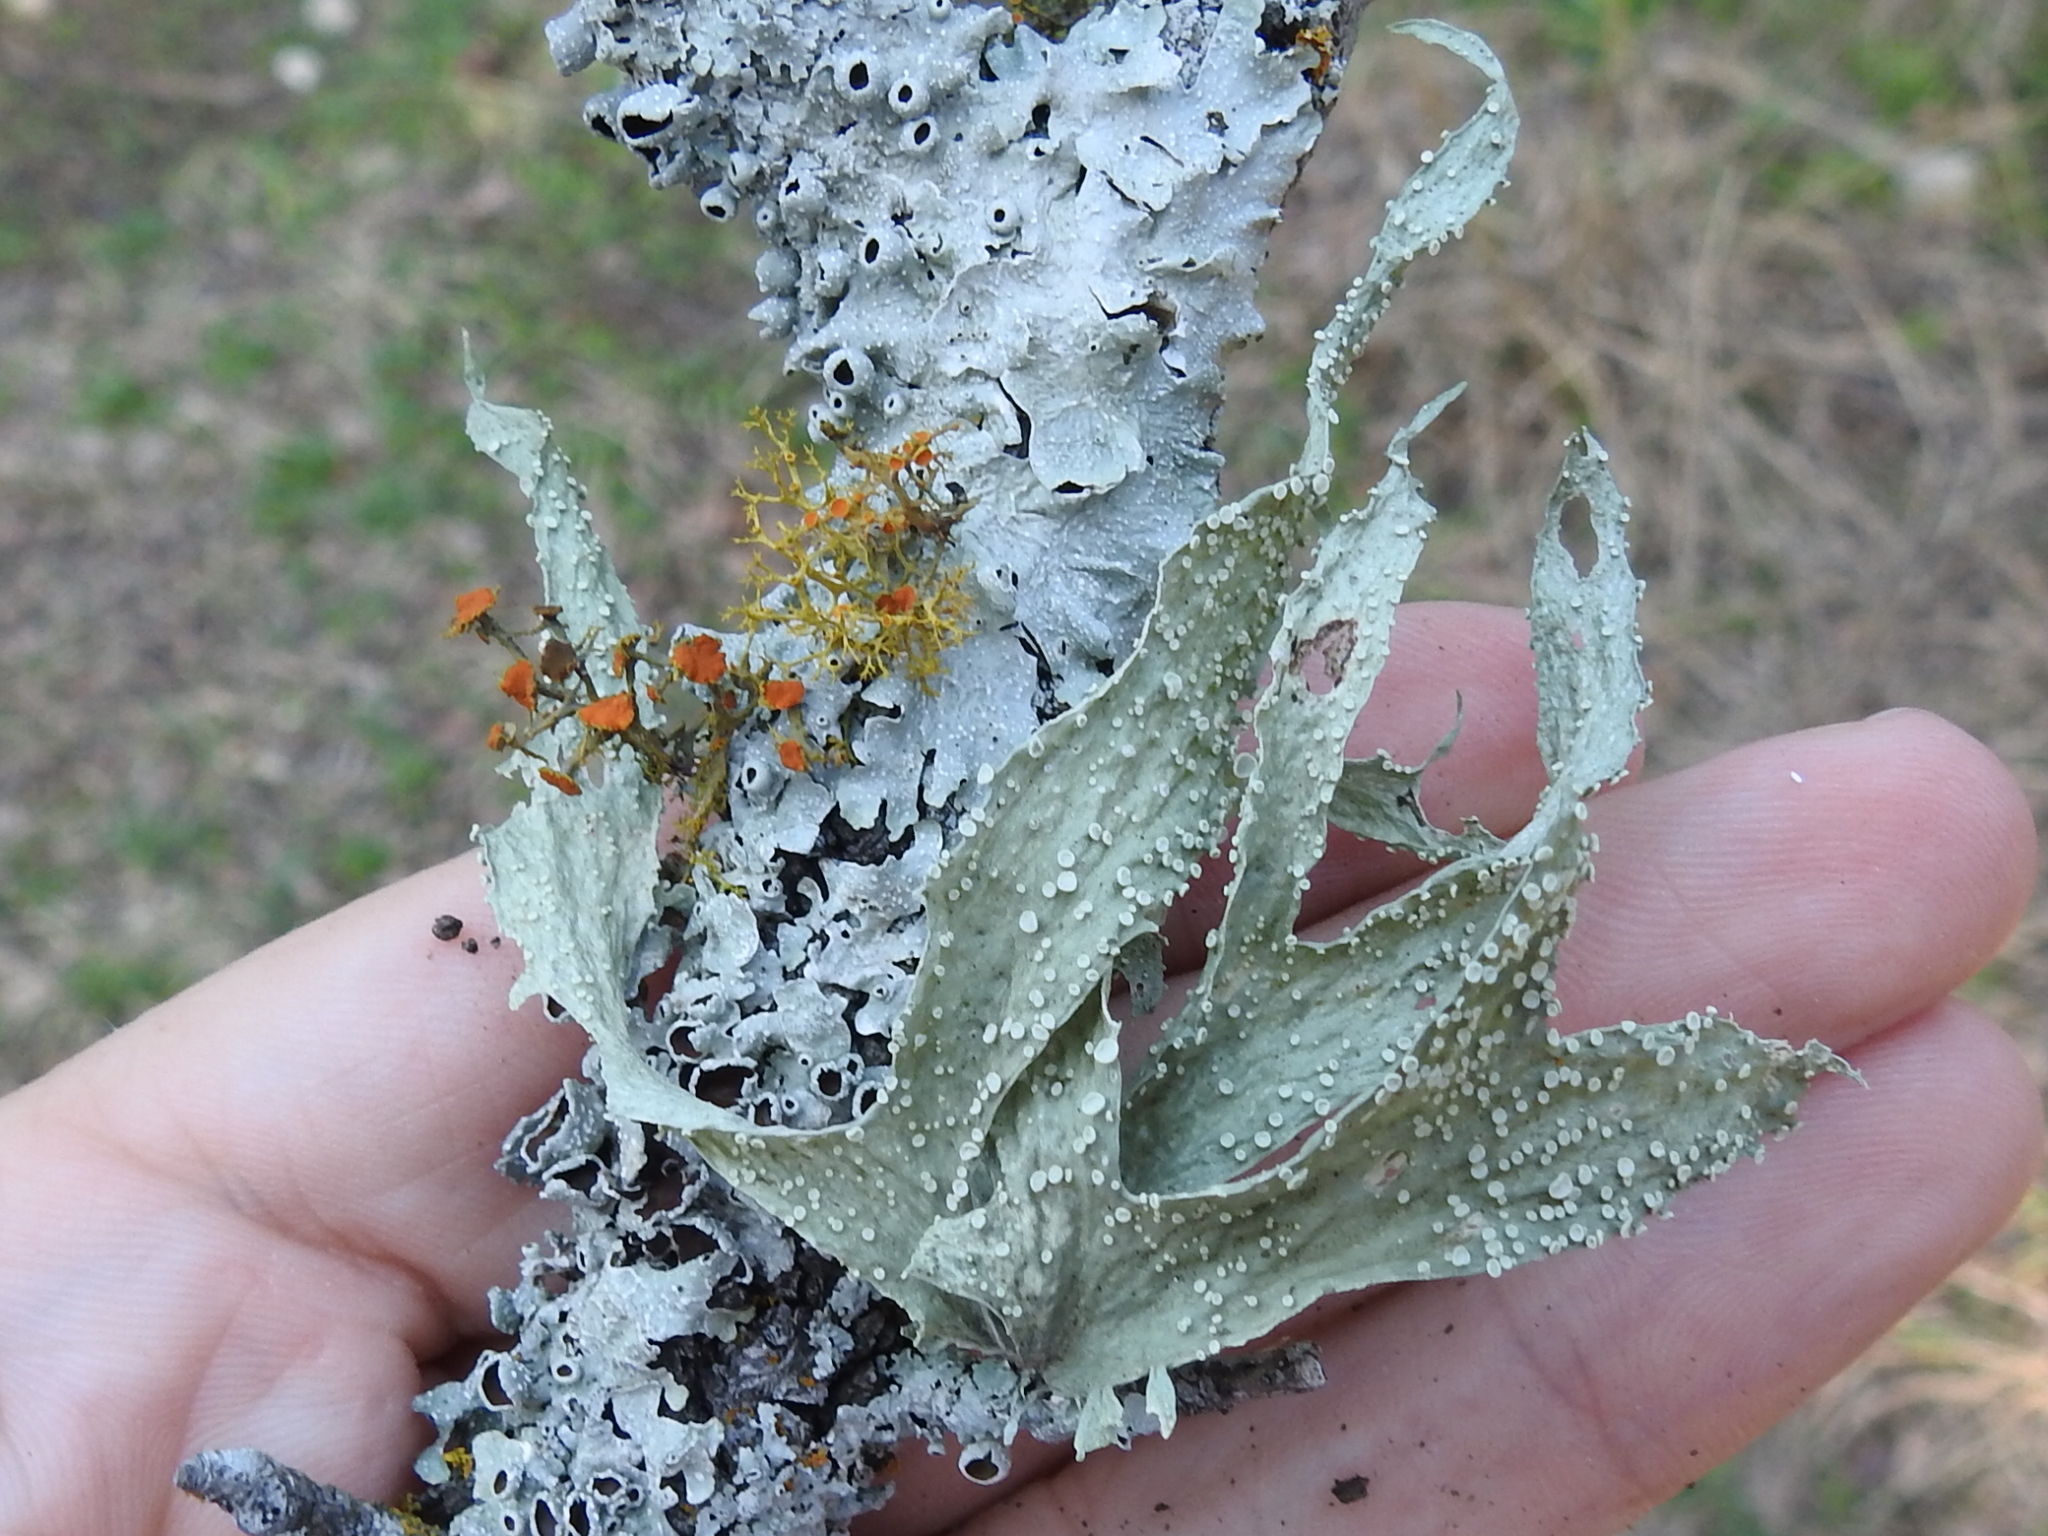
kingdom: Fungi
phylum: Ascomycota
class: Lecanoromycetes
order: Lecanorales
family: Ramalinaceae
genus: Ramalina
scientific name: Ramalina celastri
